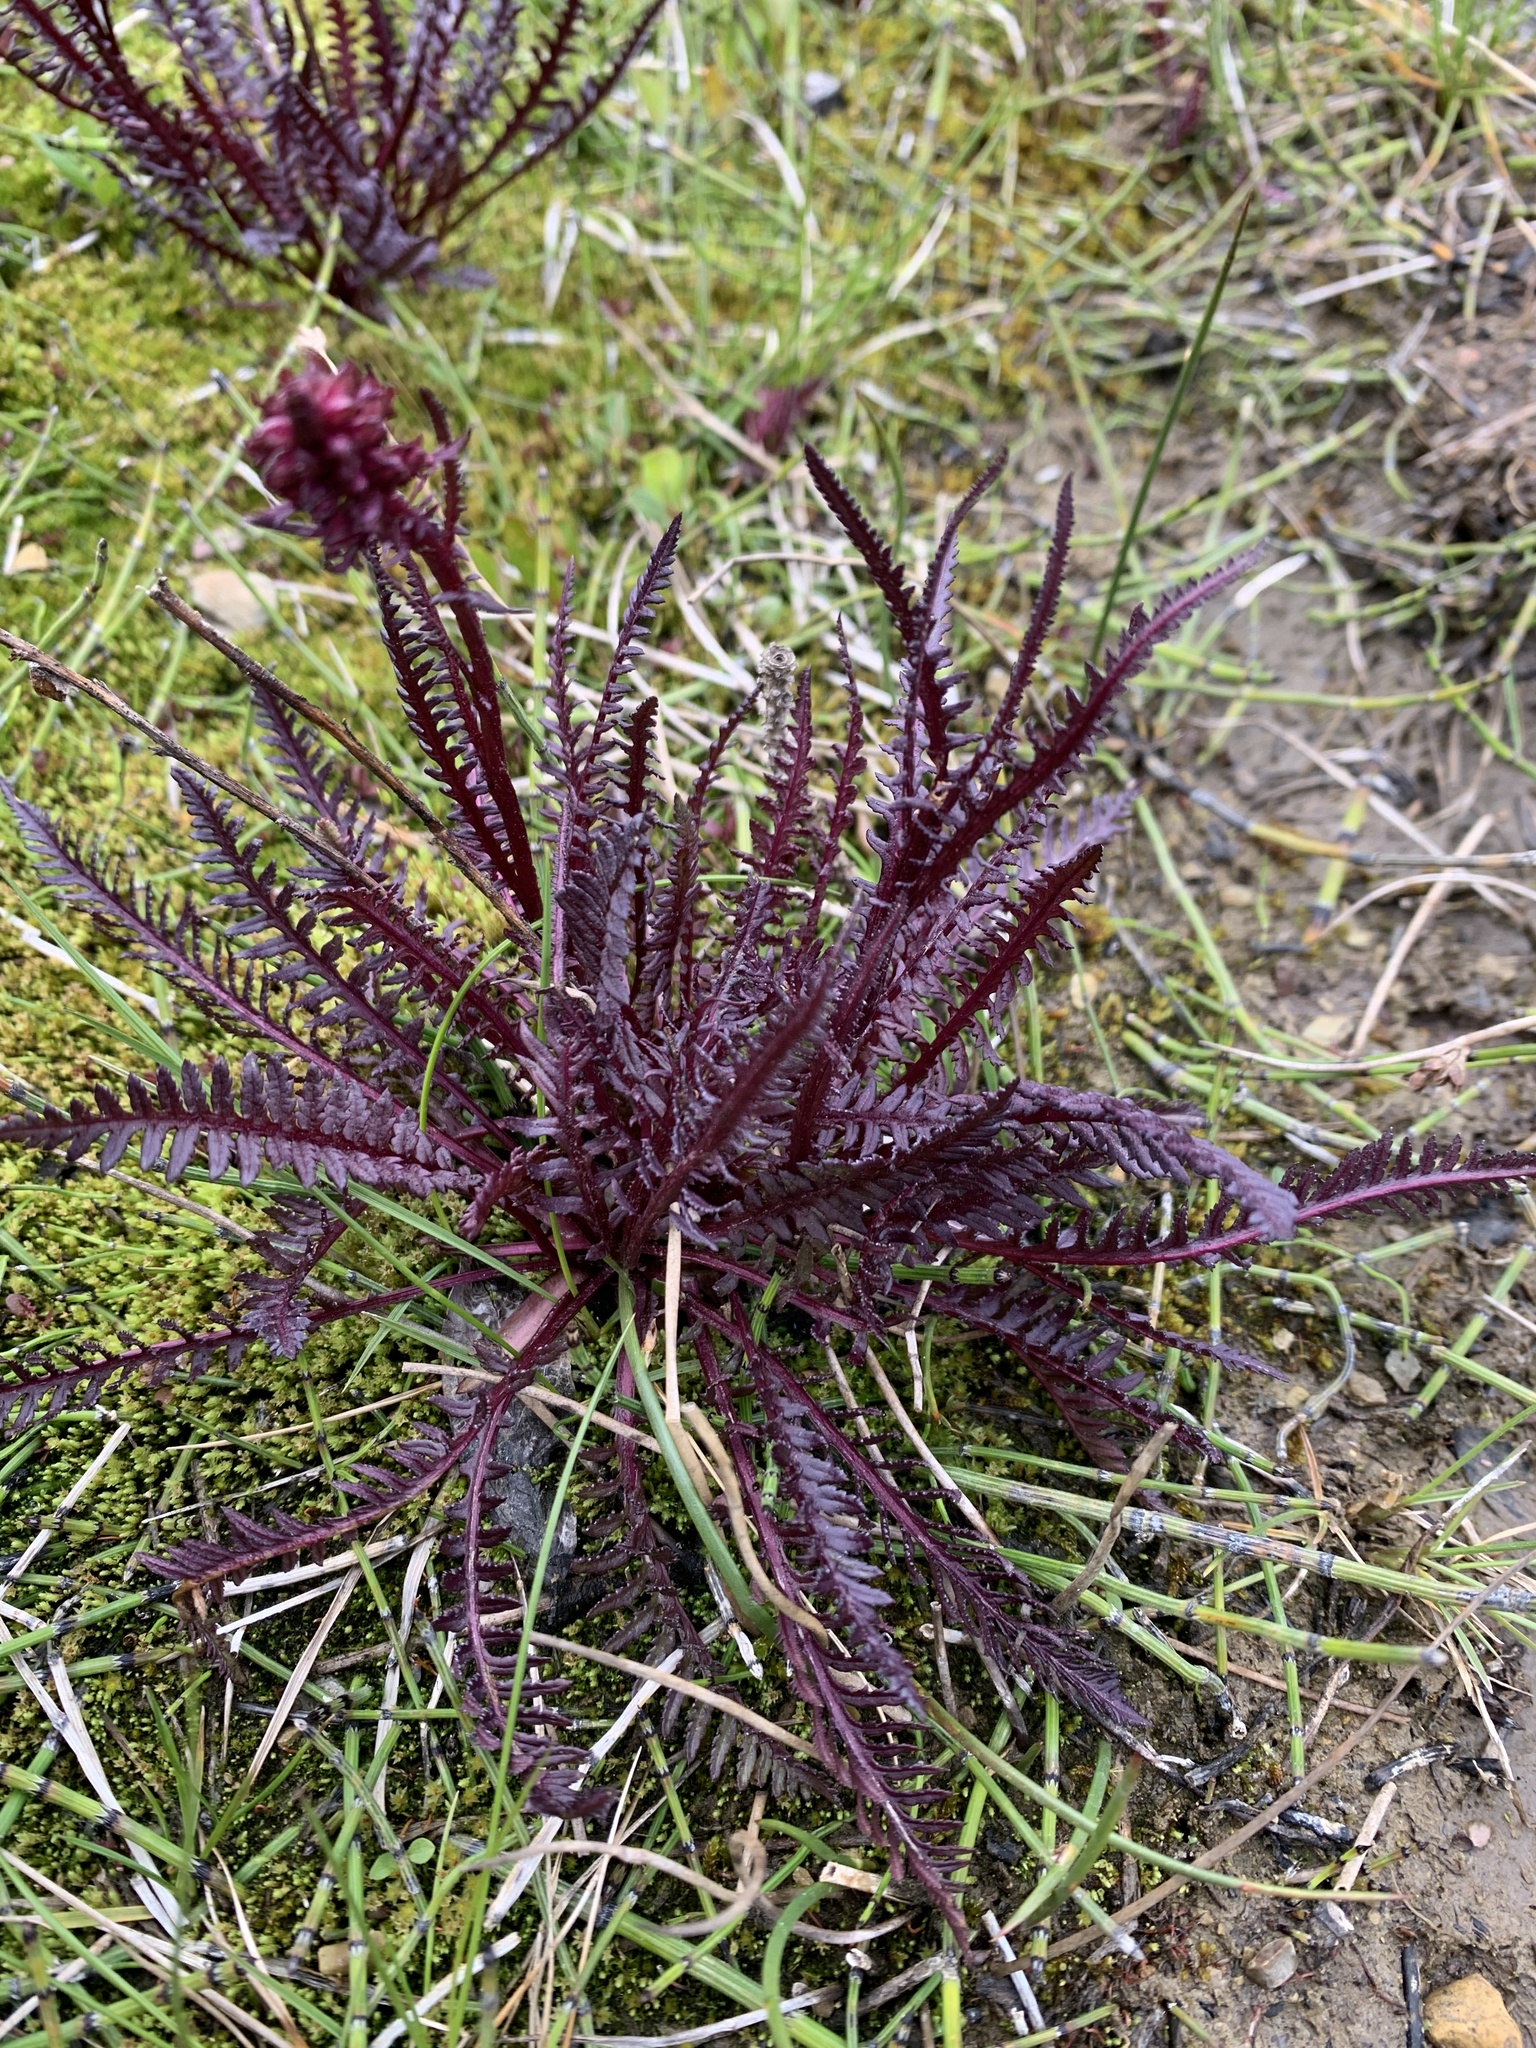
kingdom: Plantae
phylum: Tracheophyta
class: Magnoliopsida
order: Lamiales
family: Orobanchaceae
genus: Pedicularis
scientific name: Pedicularis groenlandica
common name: Elephant's-head
